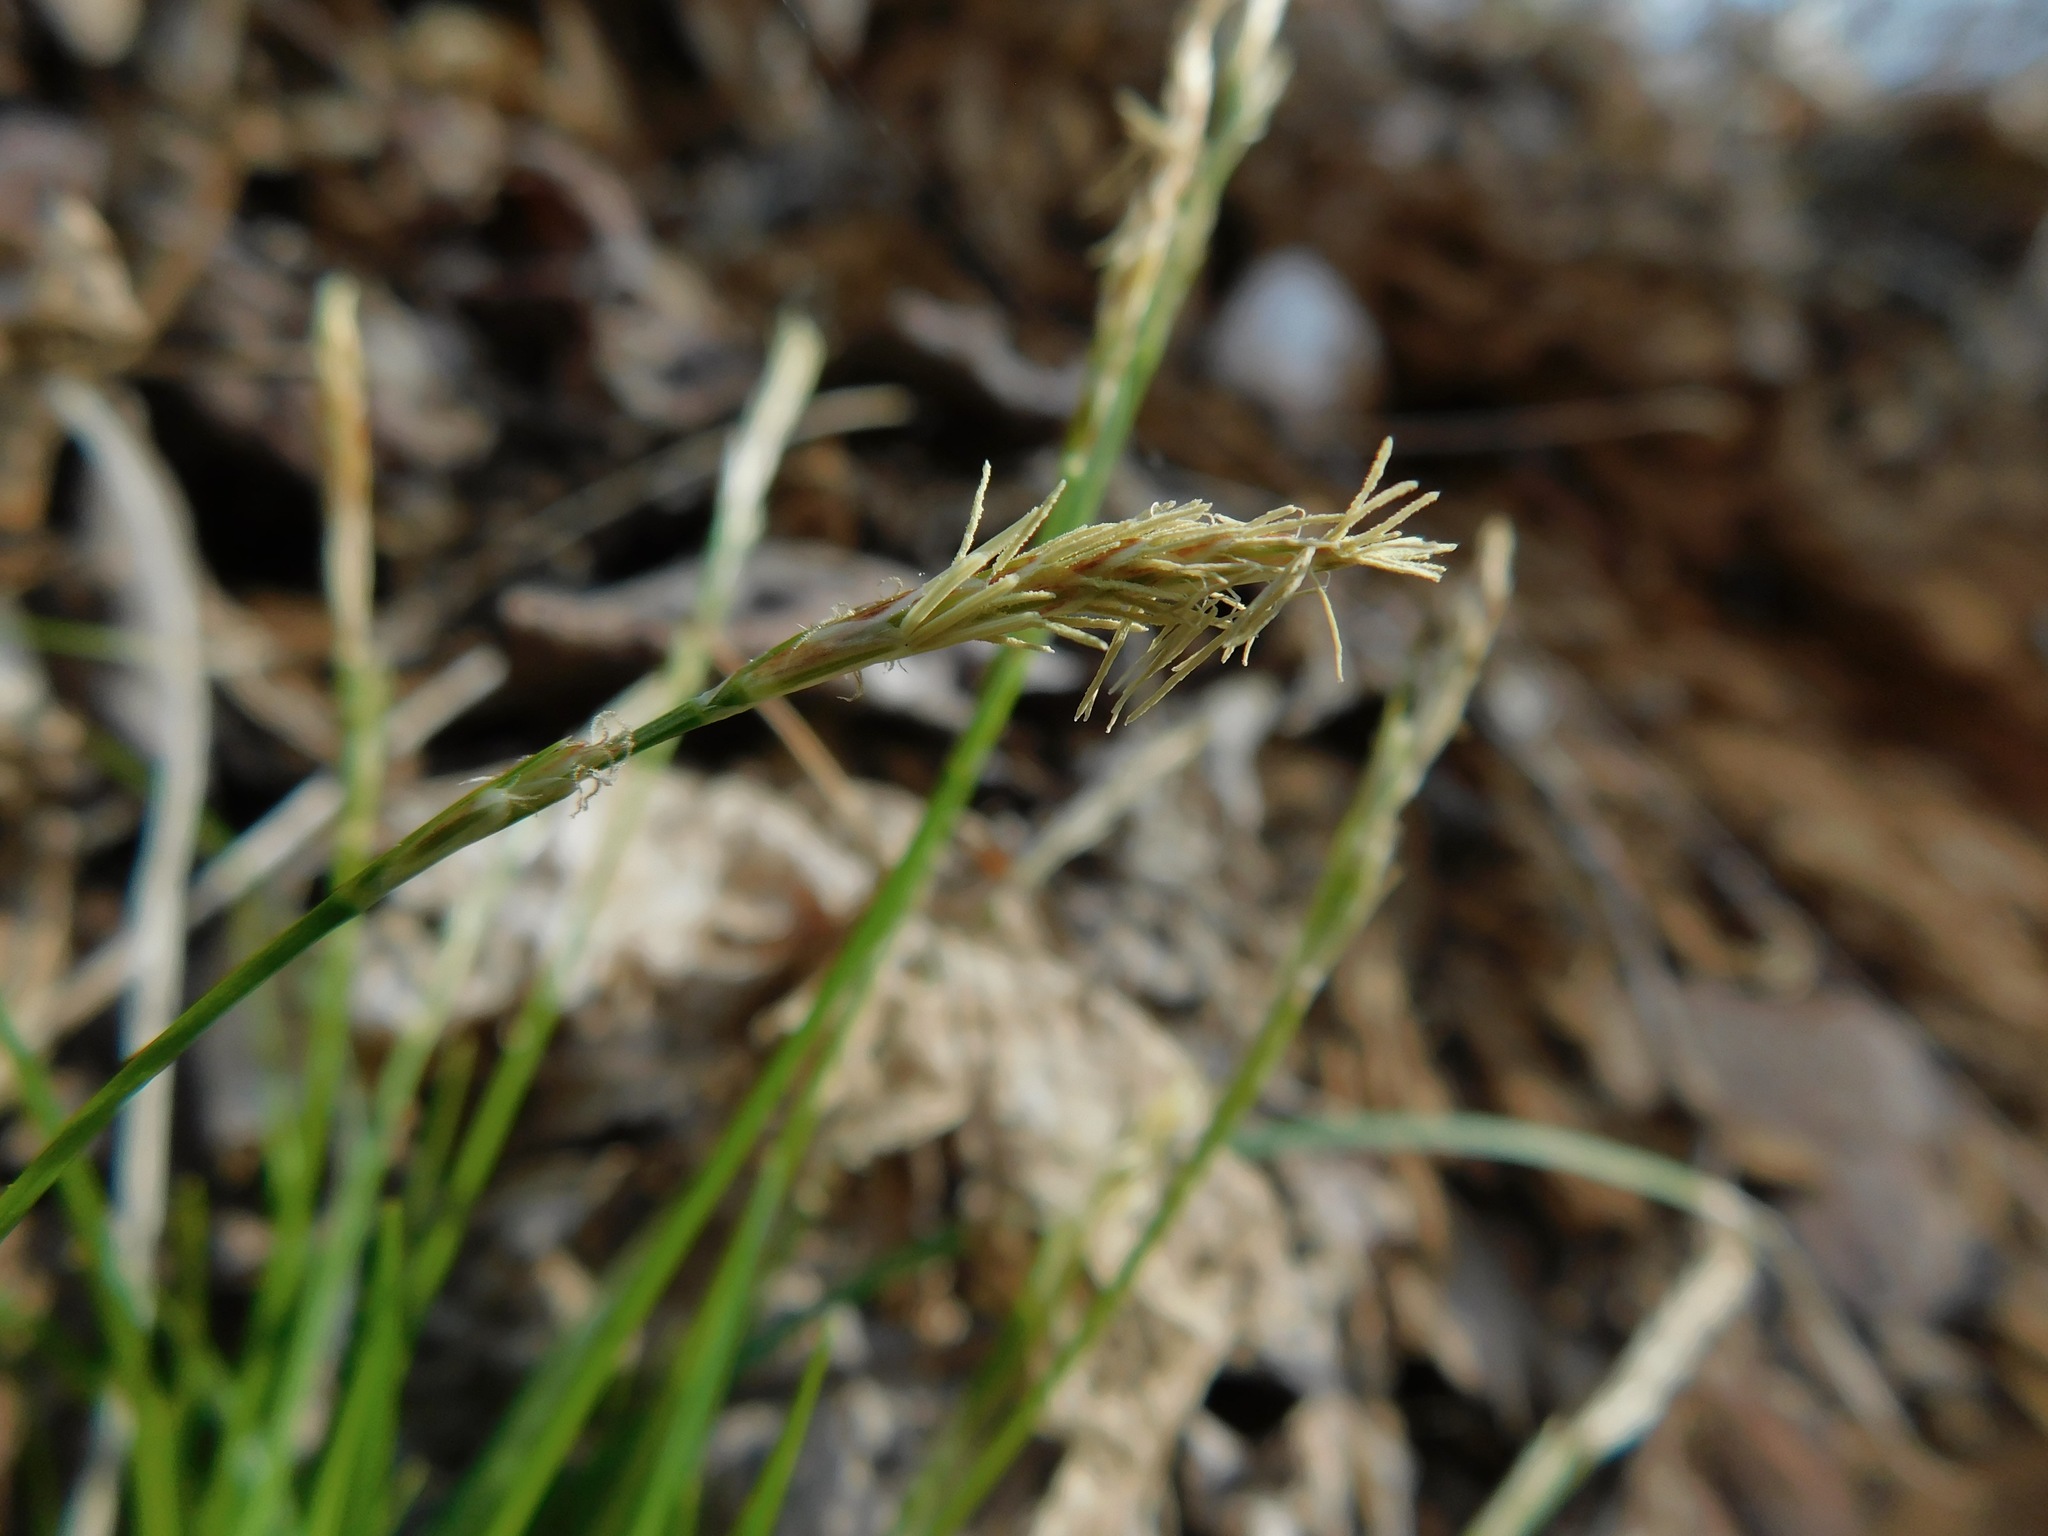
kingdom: Plantae
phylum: Tracheophyta
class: Liliopsida
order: Poales
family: Cyperaceae
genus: Carex
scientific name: Carex pensylvanica
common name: Common oak sedge
